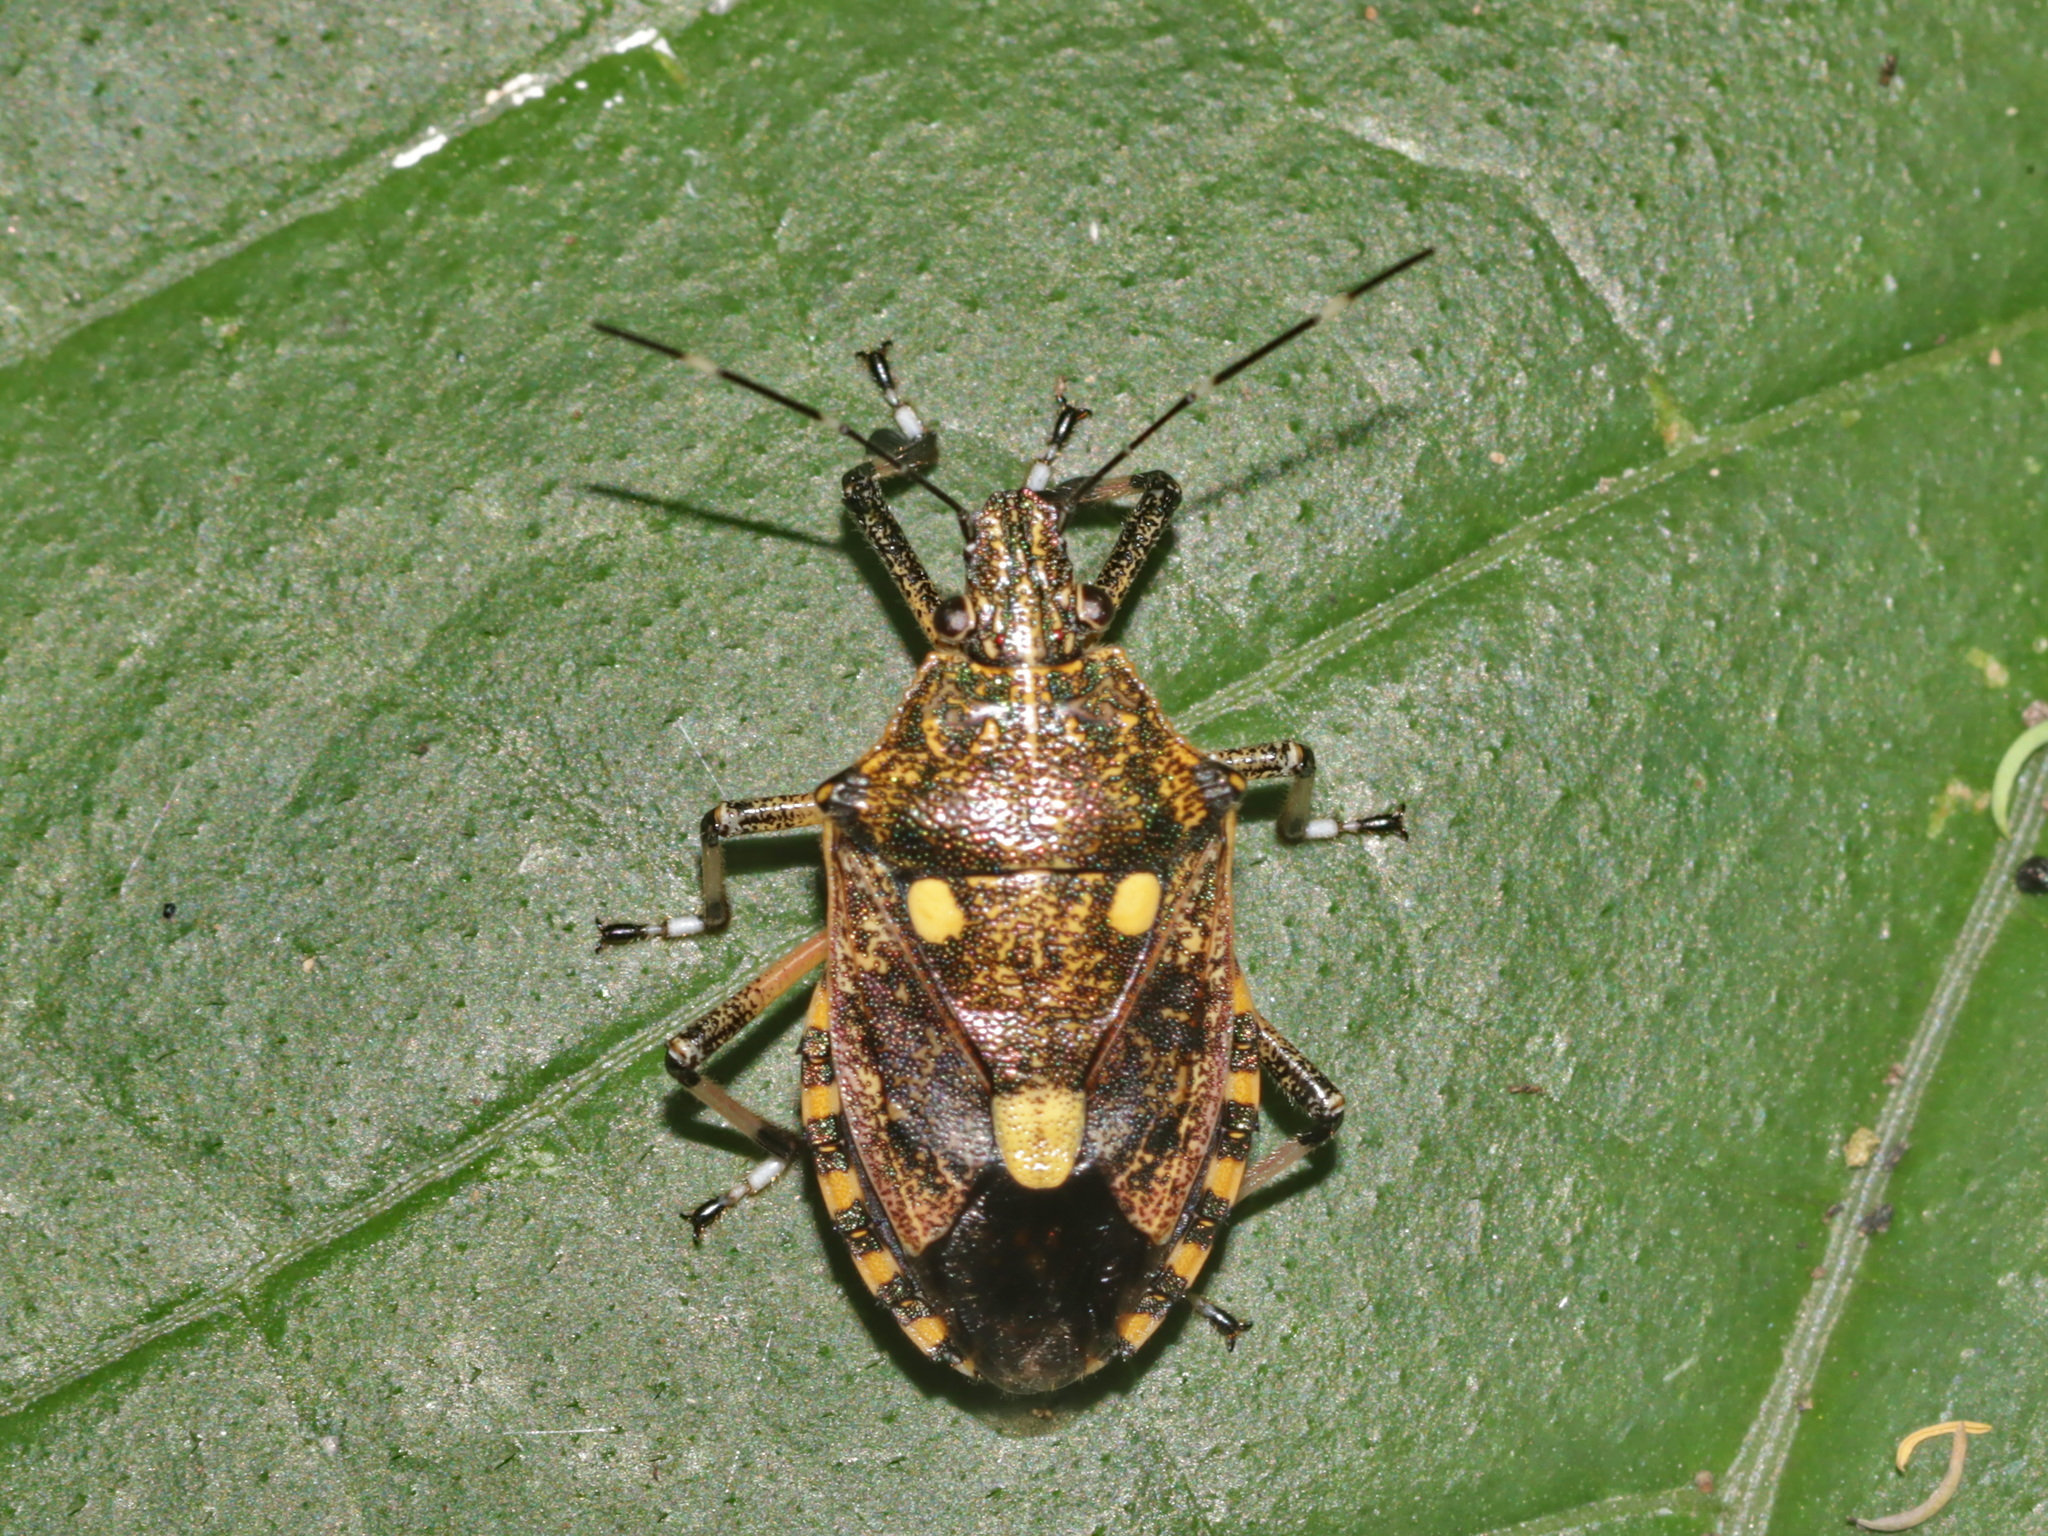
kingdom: Animalia
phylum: Arthropoda
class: Insecta
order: Hemiptera
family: Pentatomidae
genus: Dalpada
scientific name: Dalpada oculata
